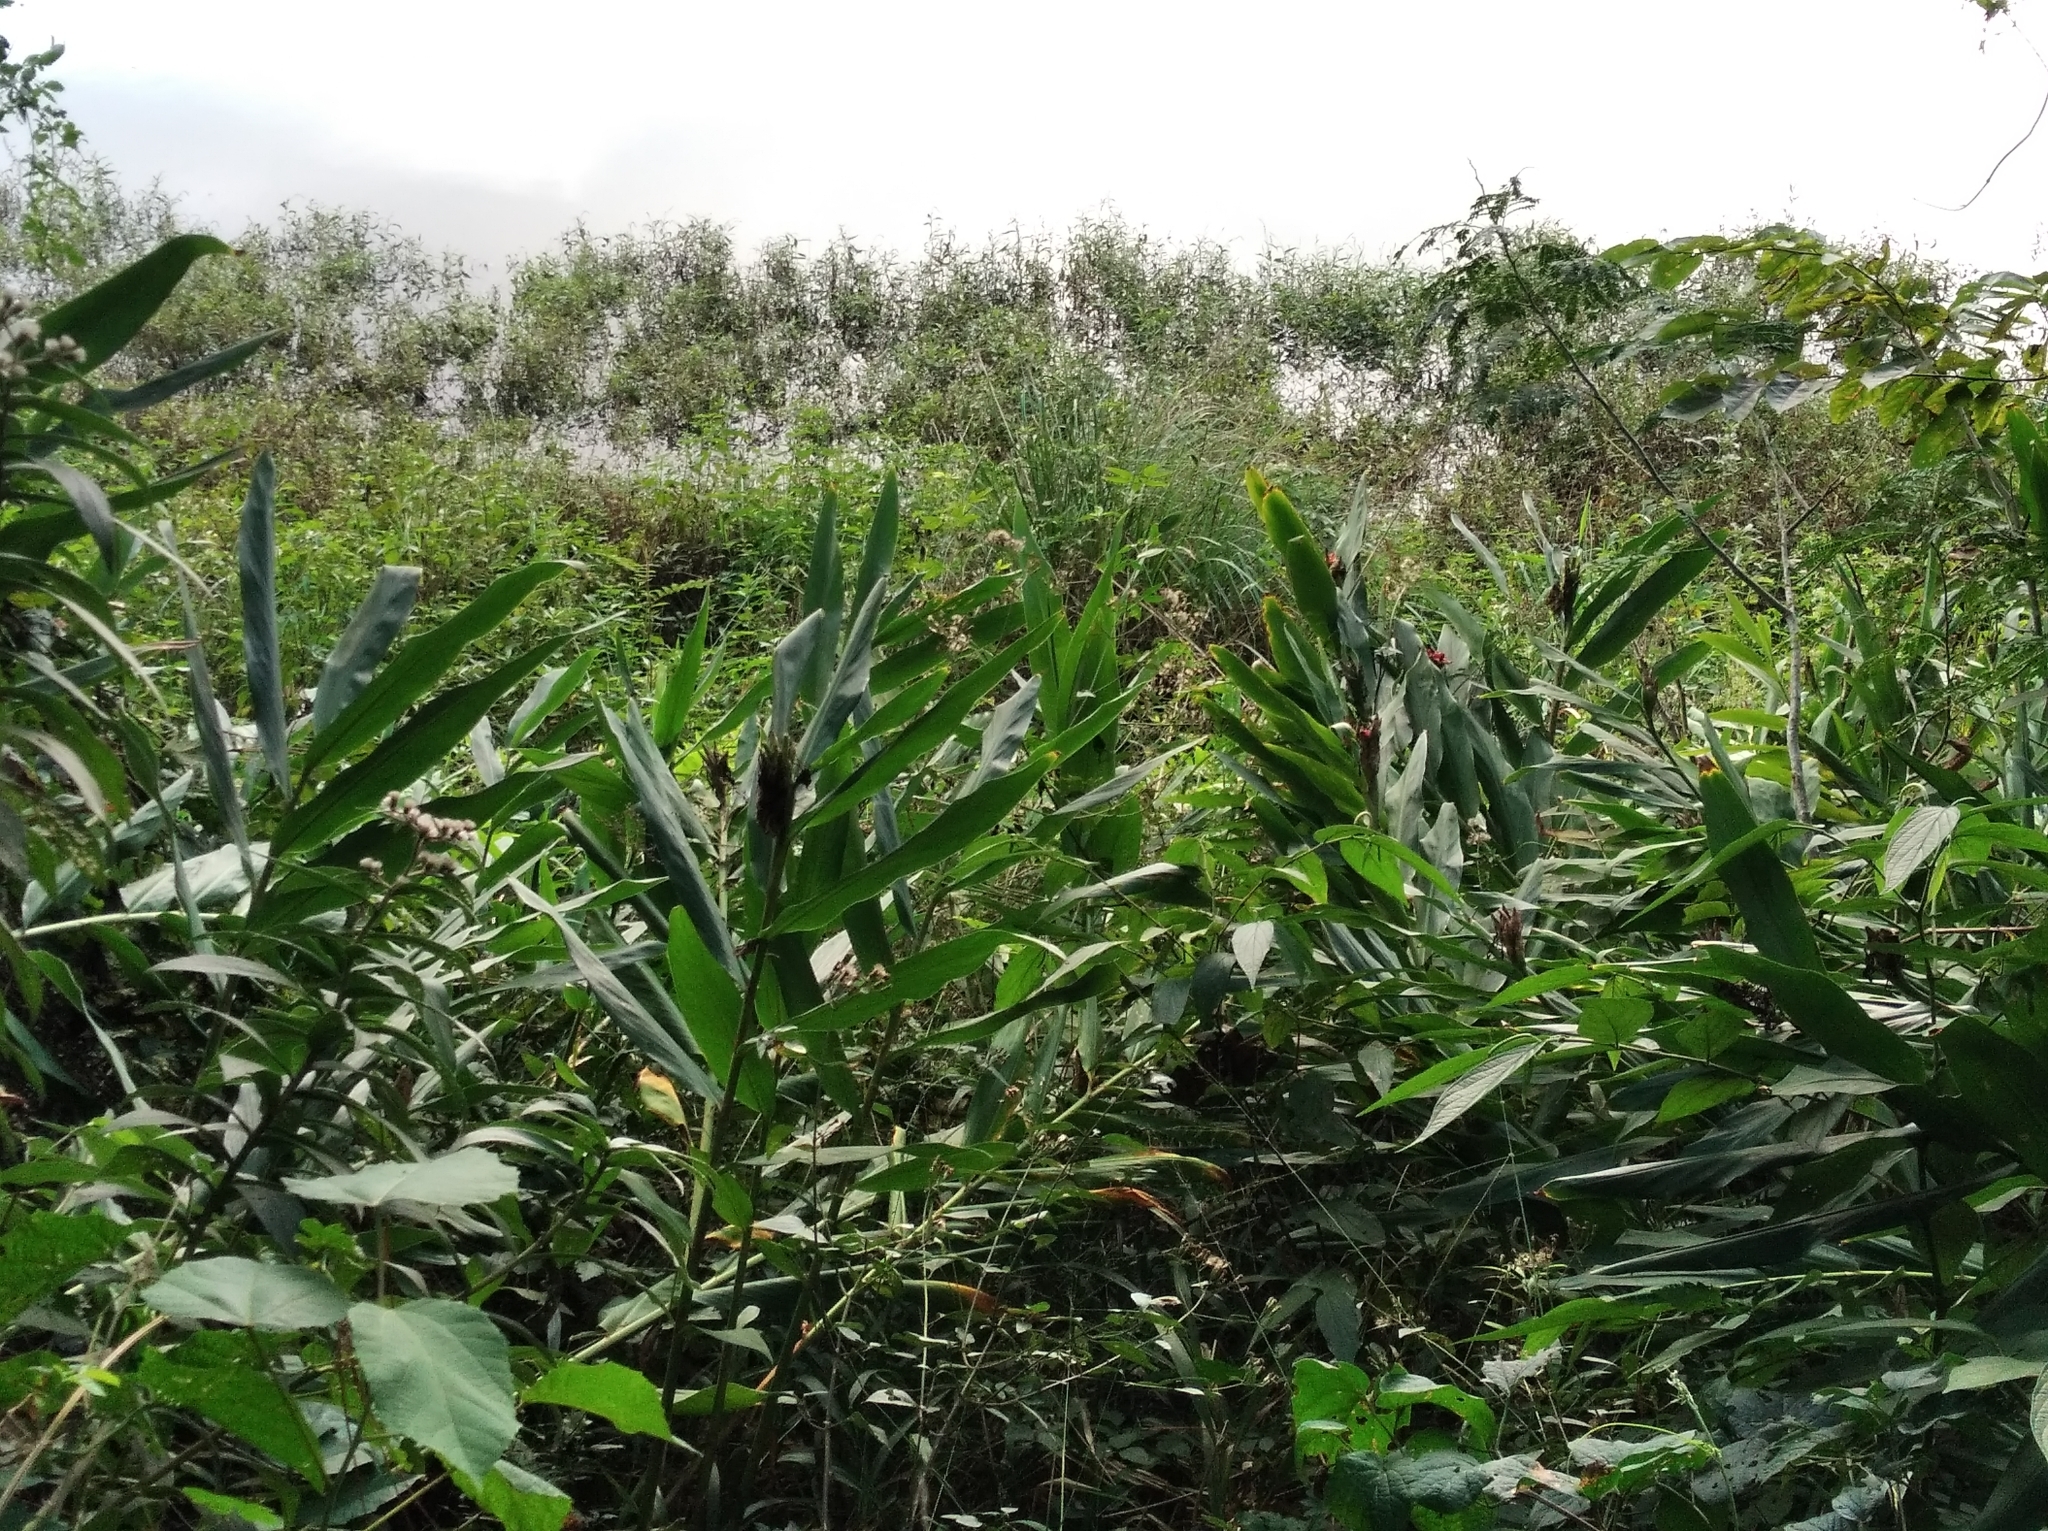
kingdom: Plantae
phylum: Tracheophyta
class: Liliopsida
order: Zingiberales
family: Zingiberaceae
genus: Hedychium
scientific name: Hedychium coronarium
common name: White garland-lily
